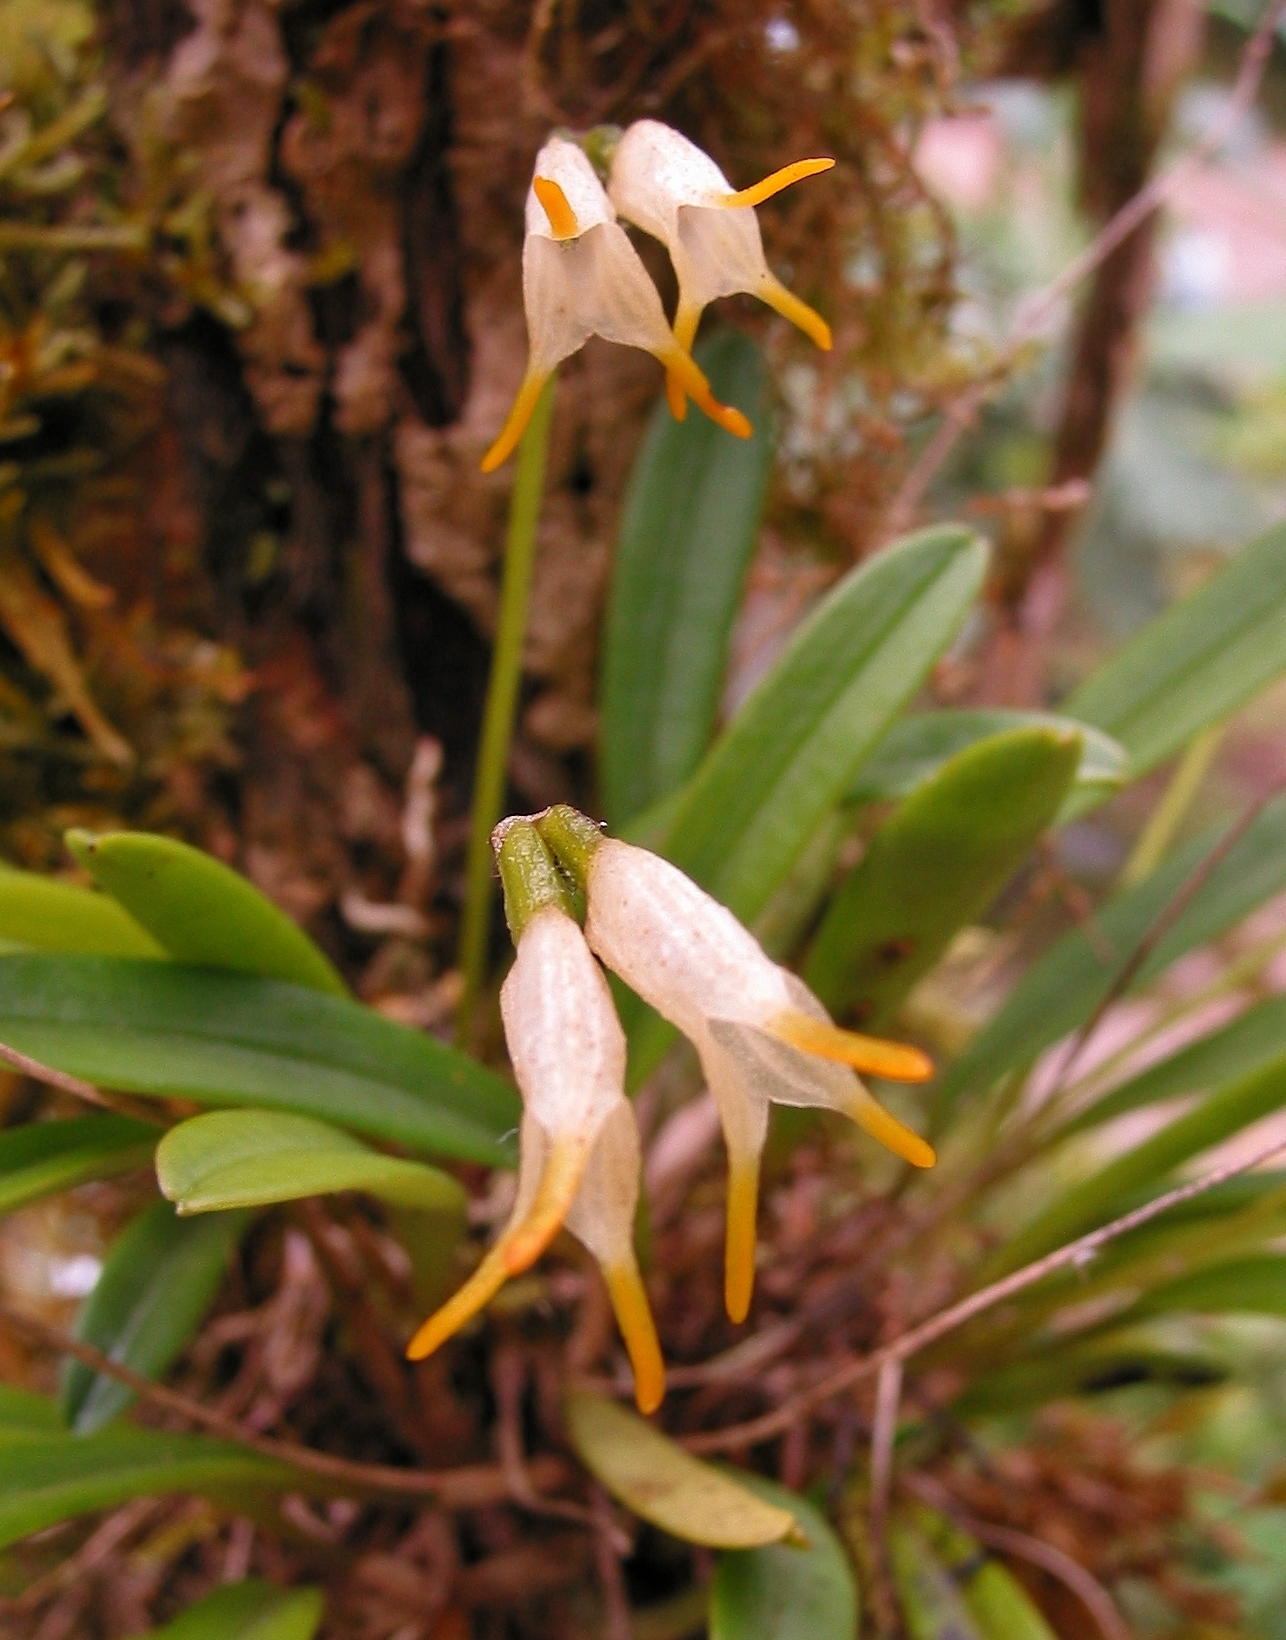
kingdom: Plantae
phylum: Tracheophyta
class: Liliopsida
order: Asparagales
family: Orchidaceae
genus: Masdevallia
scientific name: Masdevallia chontalensis
